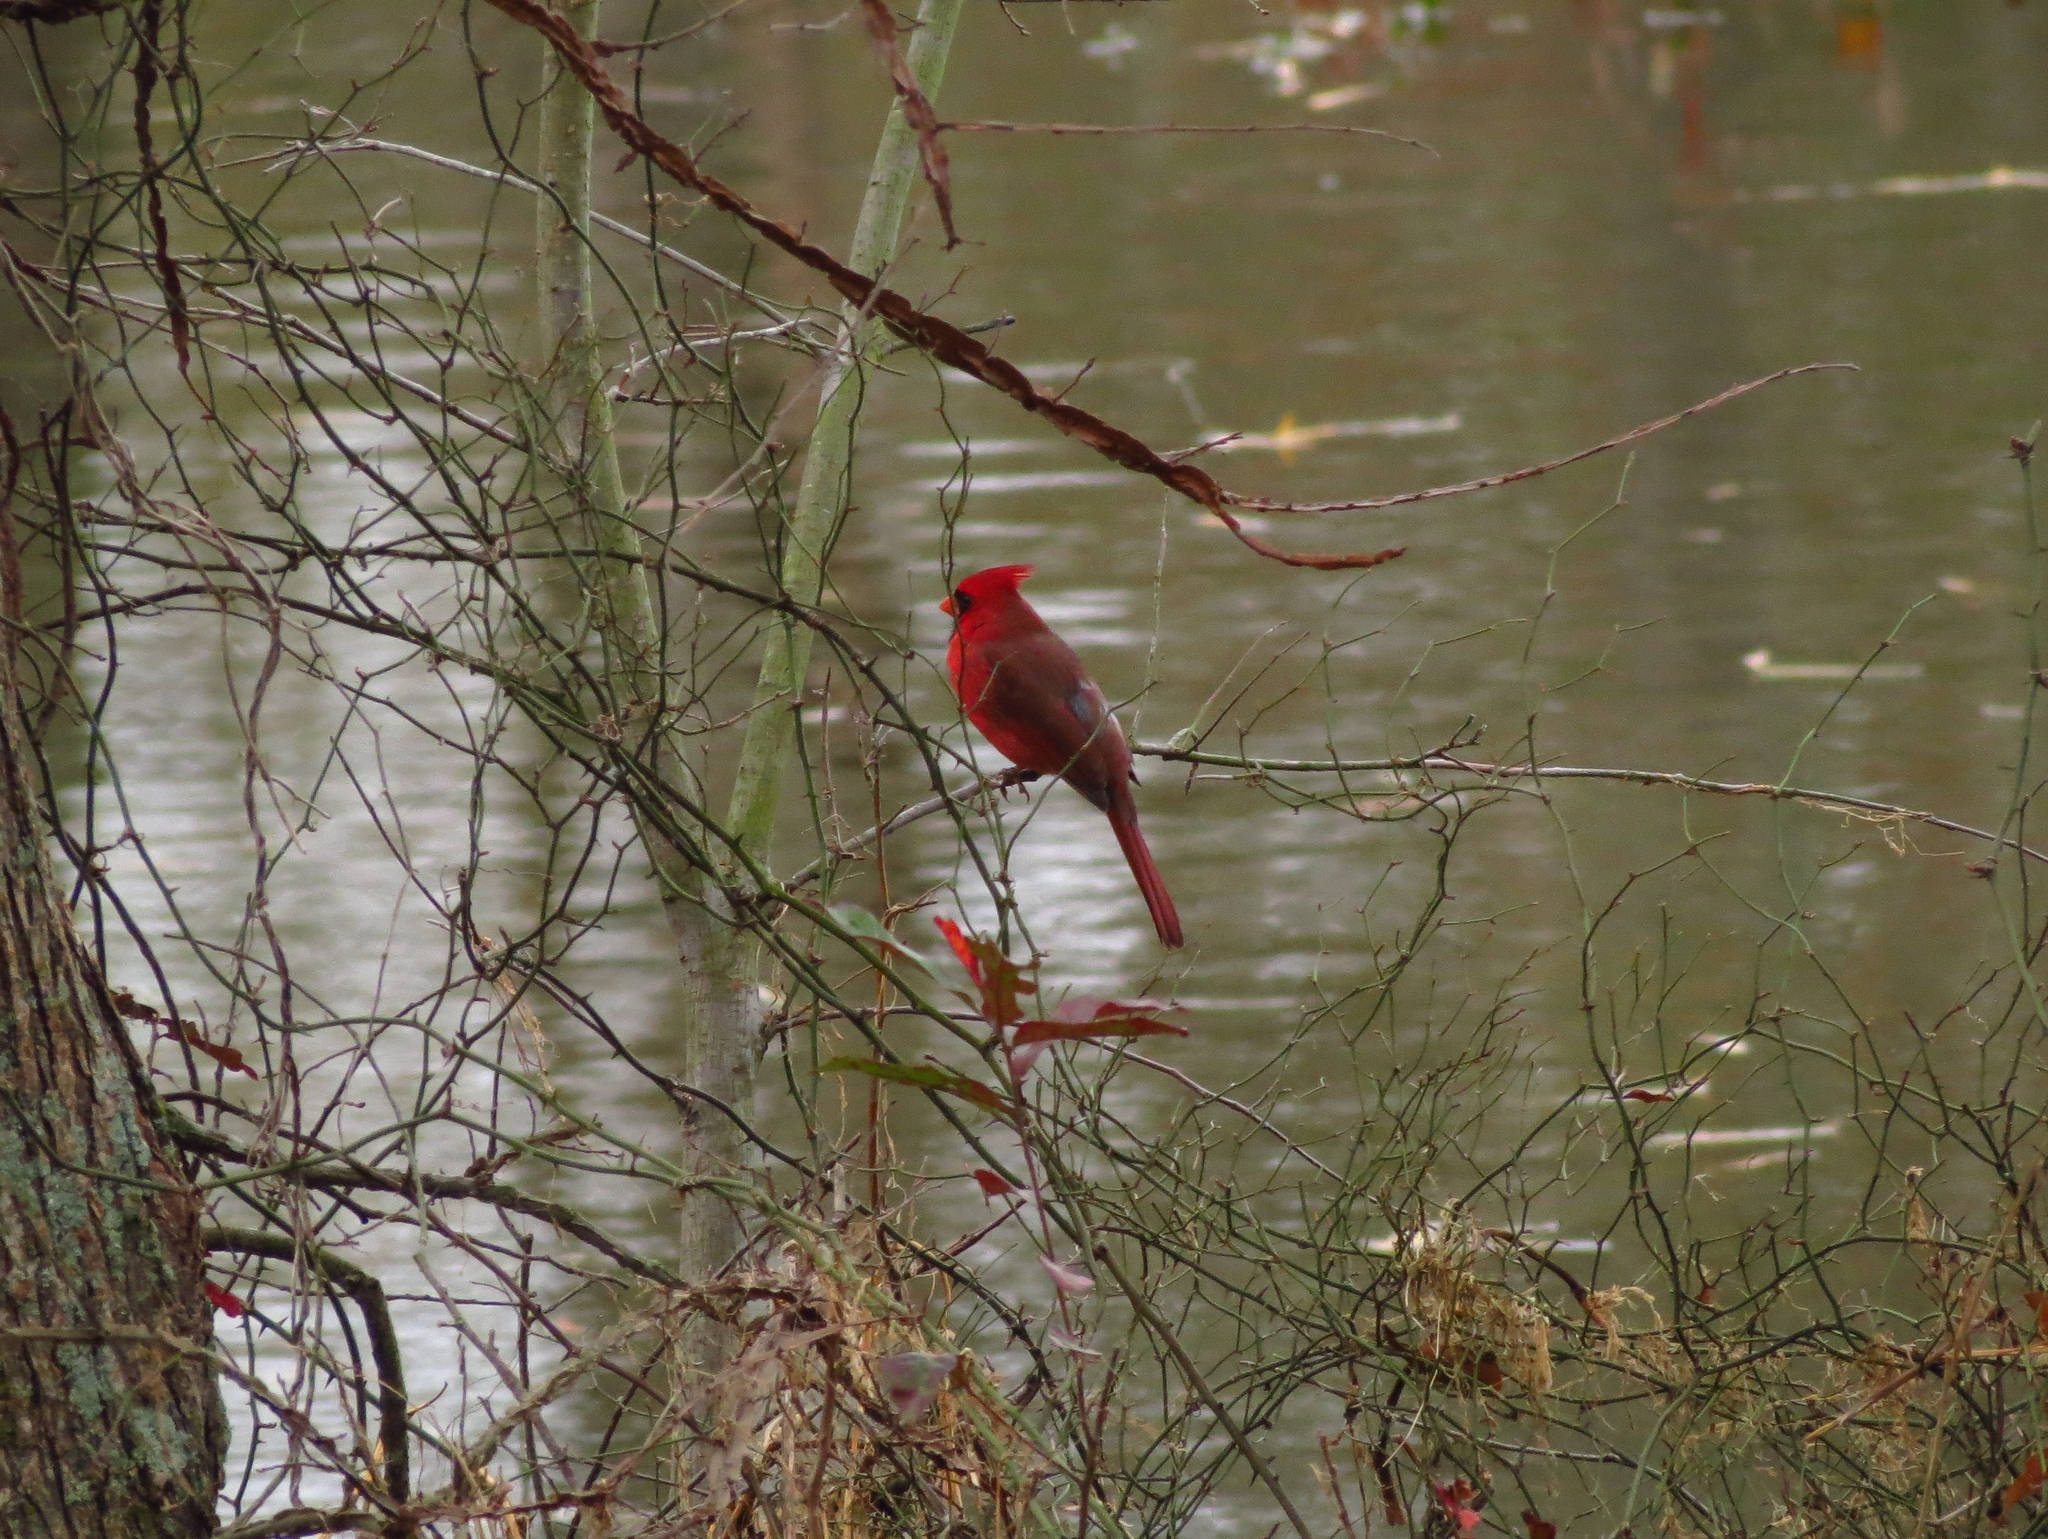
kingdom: Animalia
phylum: Chordata
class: Aves
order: Passeriformes
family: Cardinalidae
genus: Cardinalis
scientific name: Cardinalis cardinalis
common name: Northern cardinal
